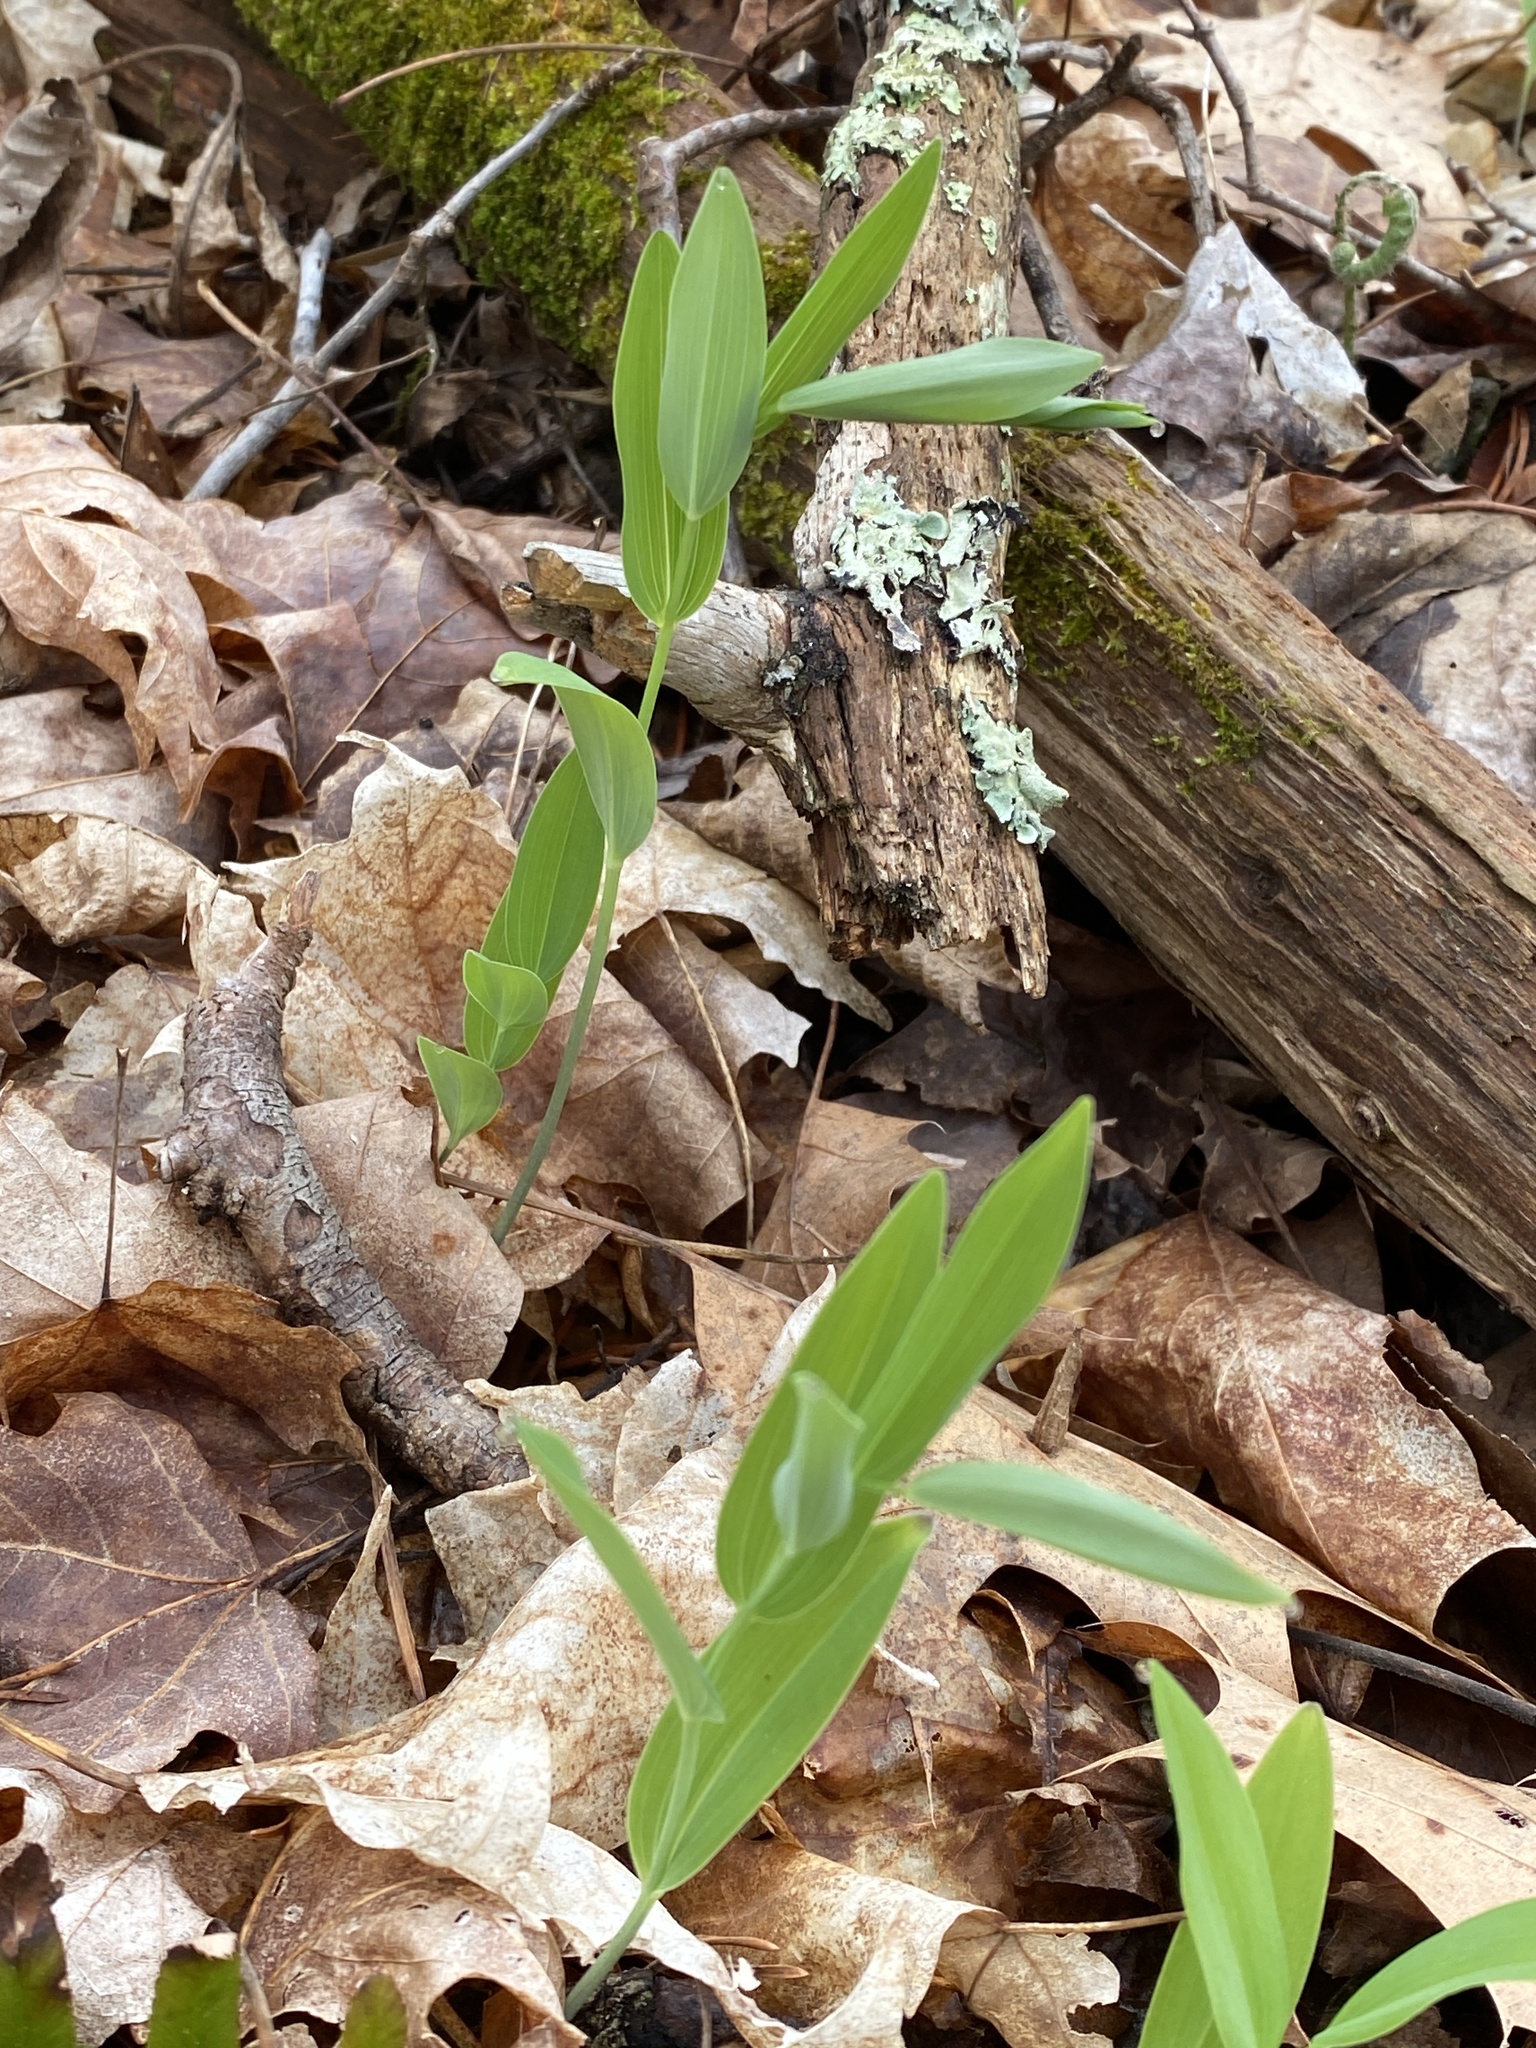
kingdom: Plantae
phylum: Tracheophyta
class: Liliopsida
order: Asparagales
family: Asparagaceae
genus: Polygonatum
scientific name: Polygonatum biflorum
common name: American solomon's-seal
